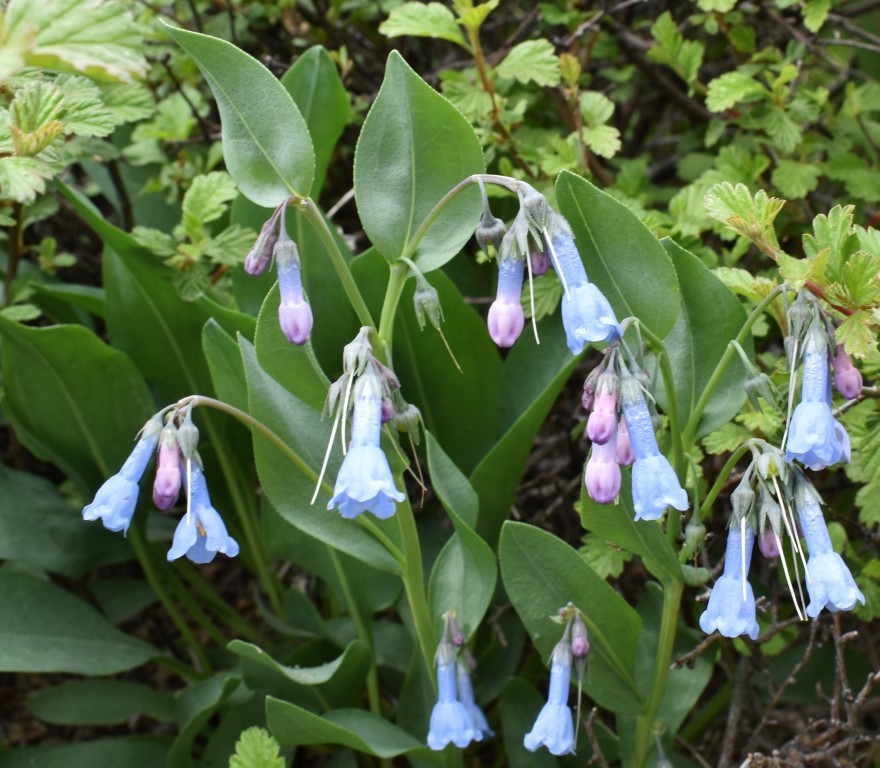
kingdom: Plantae
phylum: Tracheophyta
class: Magnoliopsida
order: Boraginales
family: Boraginaceae
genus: Mertensia
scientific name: Mertensia ciliata
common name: Tall chiming-bells
